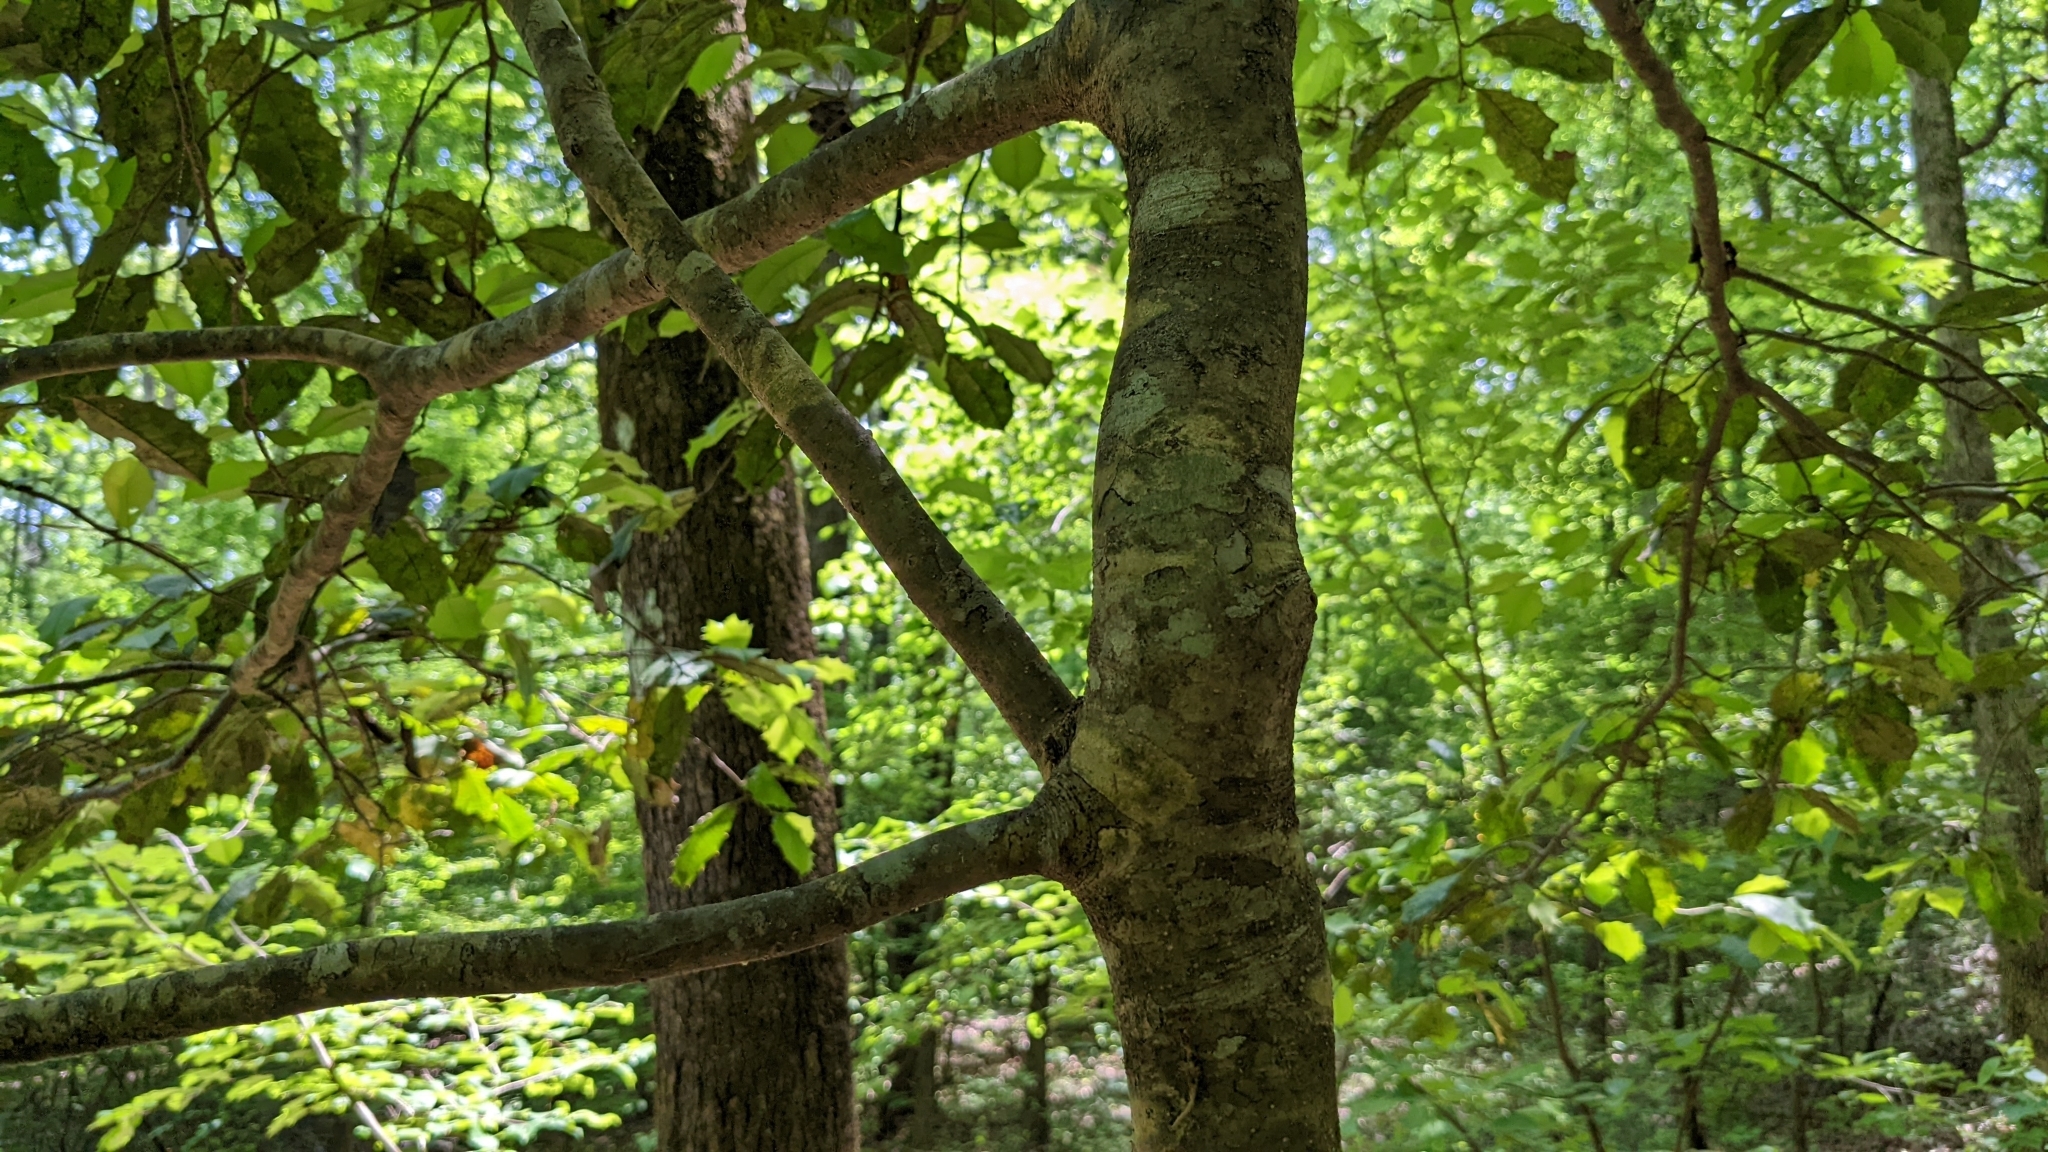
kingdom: Plantae
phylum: Tracheophyta
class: Magnoliopsida
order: Aquifoliales
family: Aquifoliaceae
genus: Ilex
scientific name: Ilex opaca
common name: American holly
